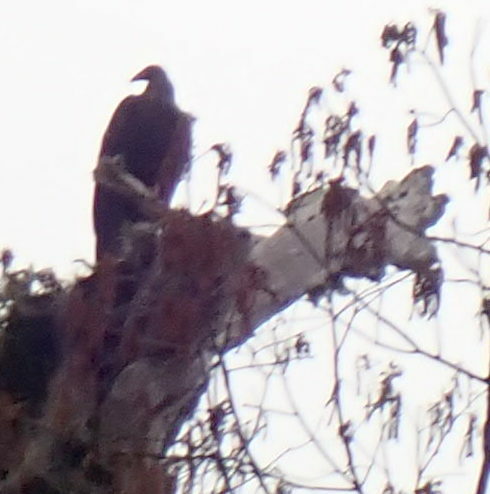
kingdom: Animalia
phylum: Chordata
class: Aves
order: Accipitriformes
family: Cathartidae
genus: Cathartes
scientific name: Cathartes aura
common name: Turkey vulture
